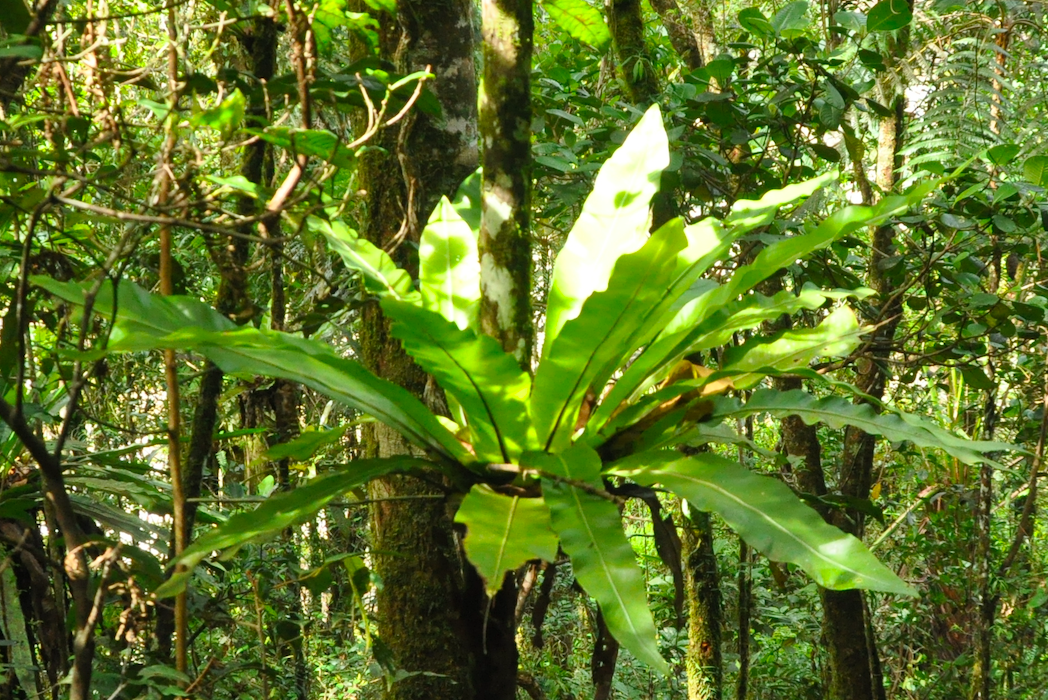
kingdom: Plantae
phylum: Tracheophyta
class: Polypodiopsida
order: Polypodiales
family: Aspleniaceae
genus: Asplenium
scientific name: Asplenium mauritianum
